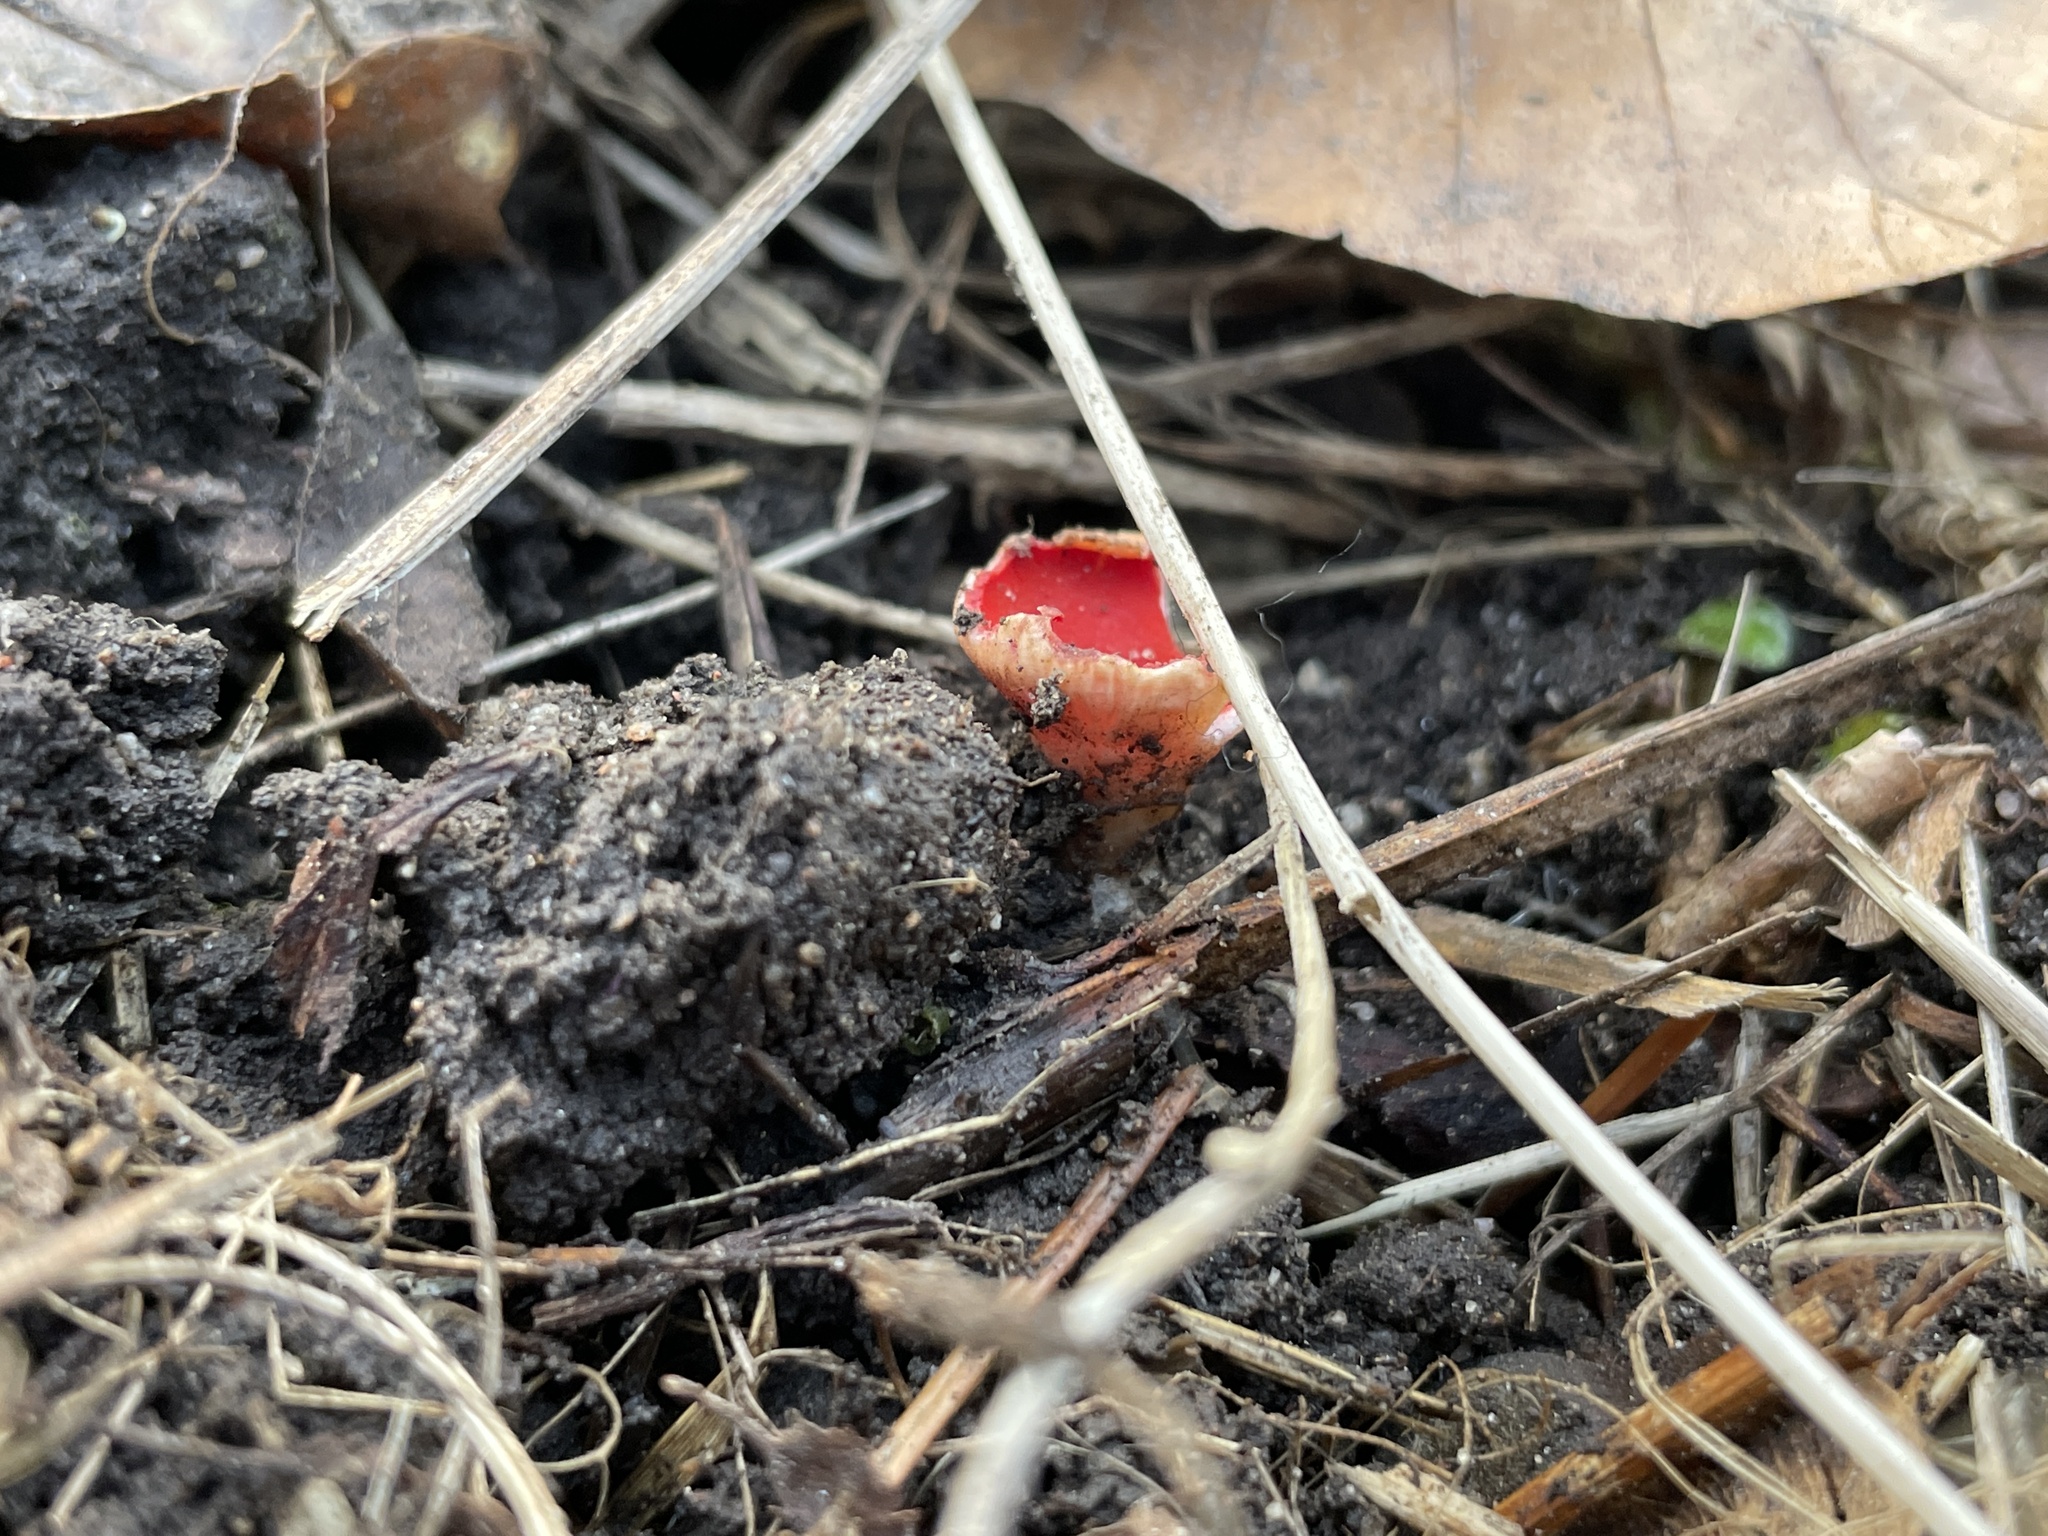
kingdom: Fungi
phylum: Ascomycota
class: Pezizomycetes
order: Pezizales
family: Sarcoscyphaceae
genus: Sarcoscypha
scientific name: Sarcoscypha
